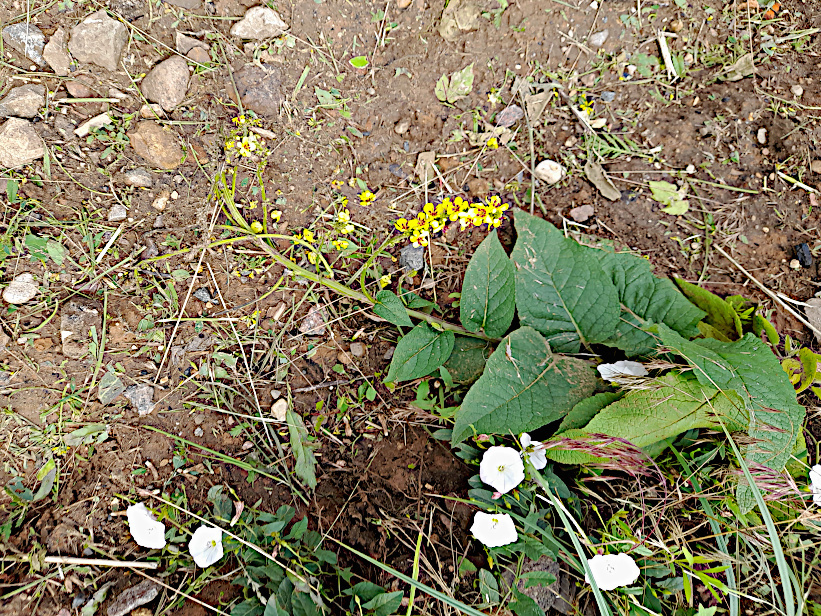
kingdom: Plantae
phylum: Tracheophyta
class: Magnoliopsida
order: Lamiales
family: Scrophulariaceae
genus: Verbascum
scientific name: Verbascum nigrum
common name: Dark mullein
